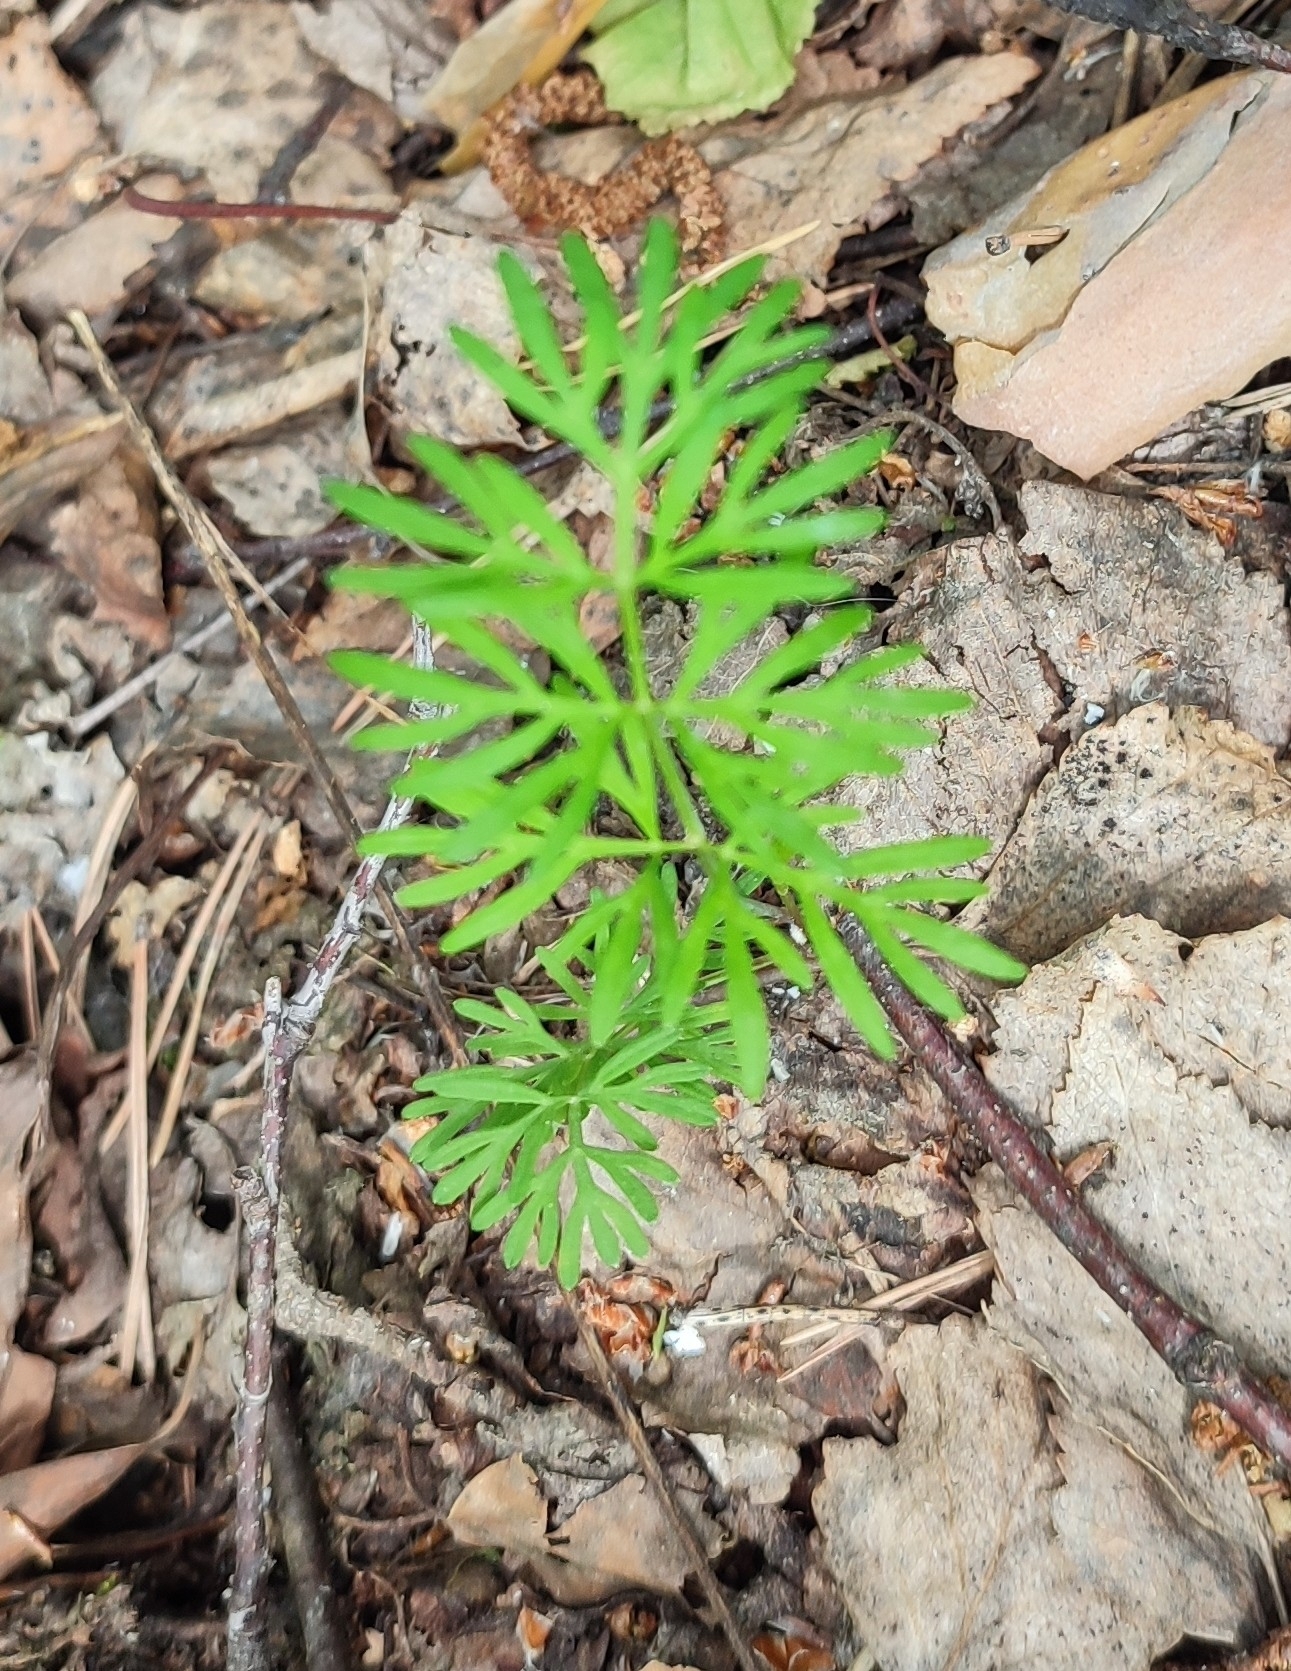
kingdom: Plantae
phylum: Tracheophyta
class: Magnoliopsida
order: Apiales
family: Apiaceae
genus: Kadenia
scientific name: Kadenia dubia
